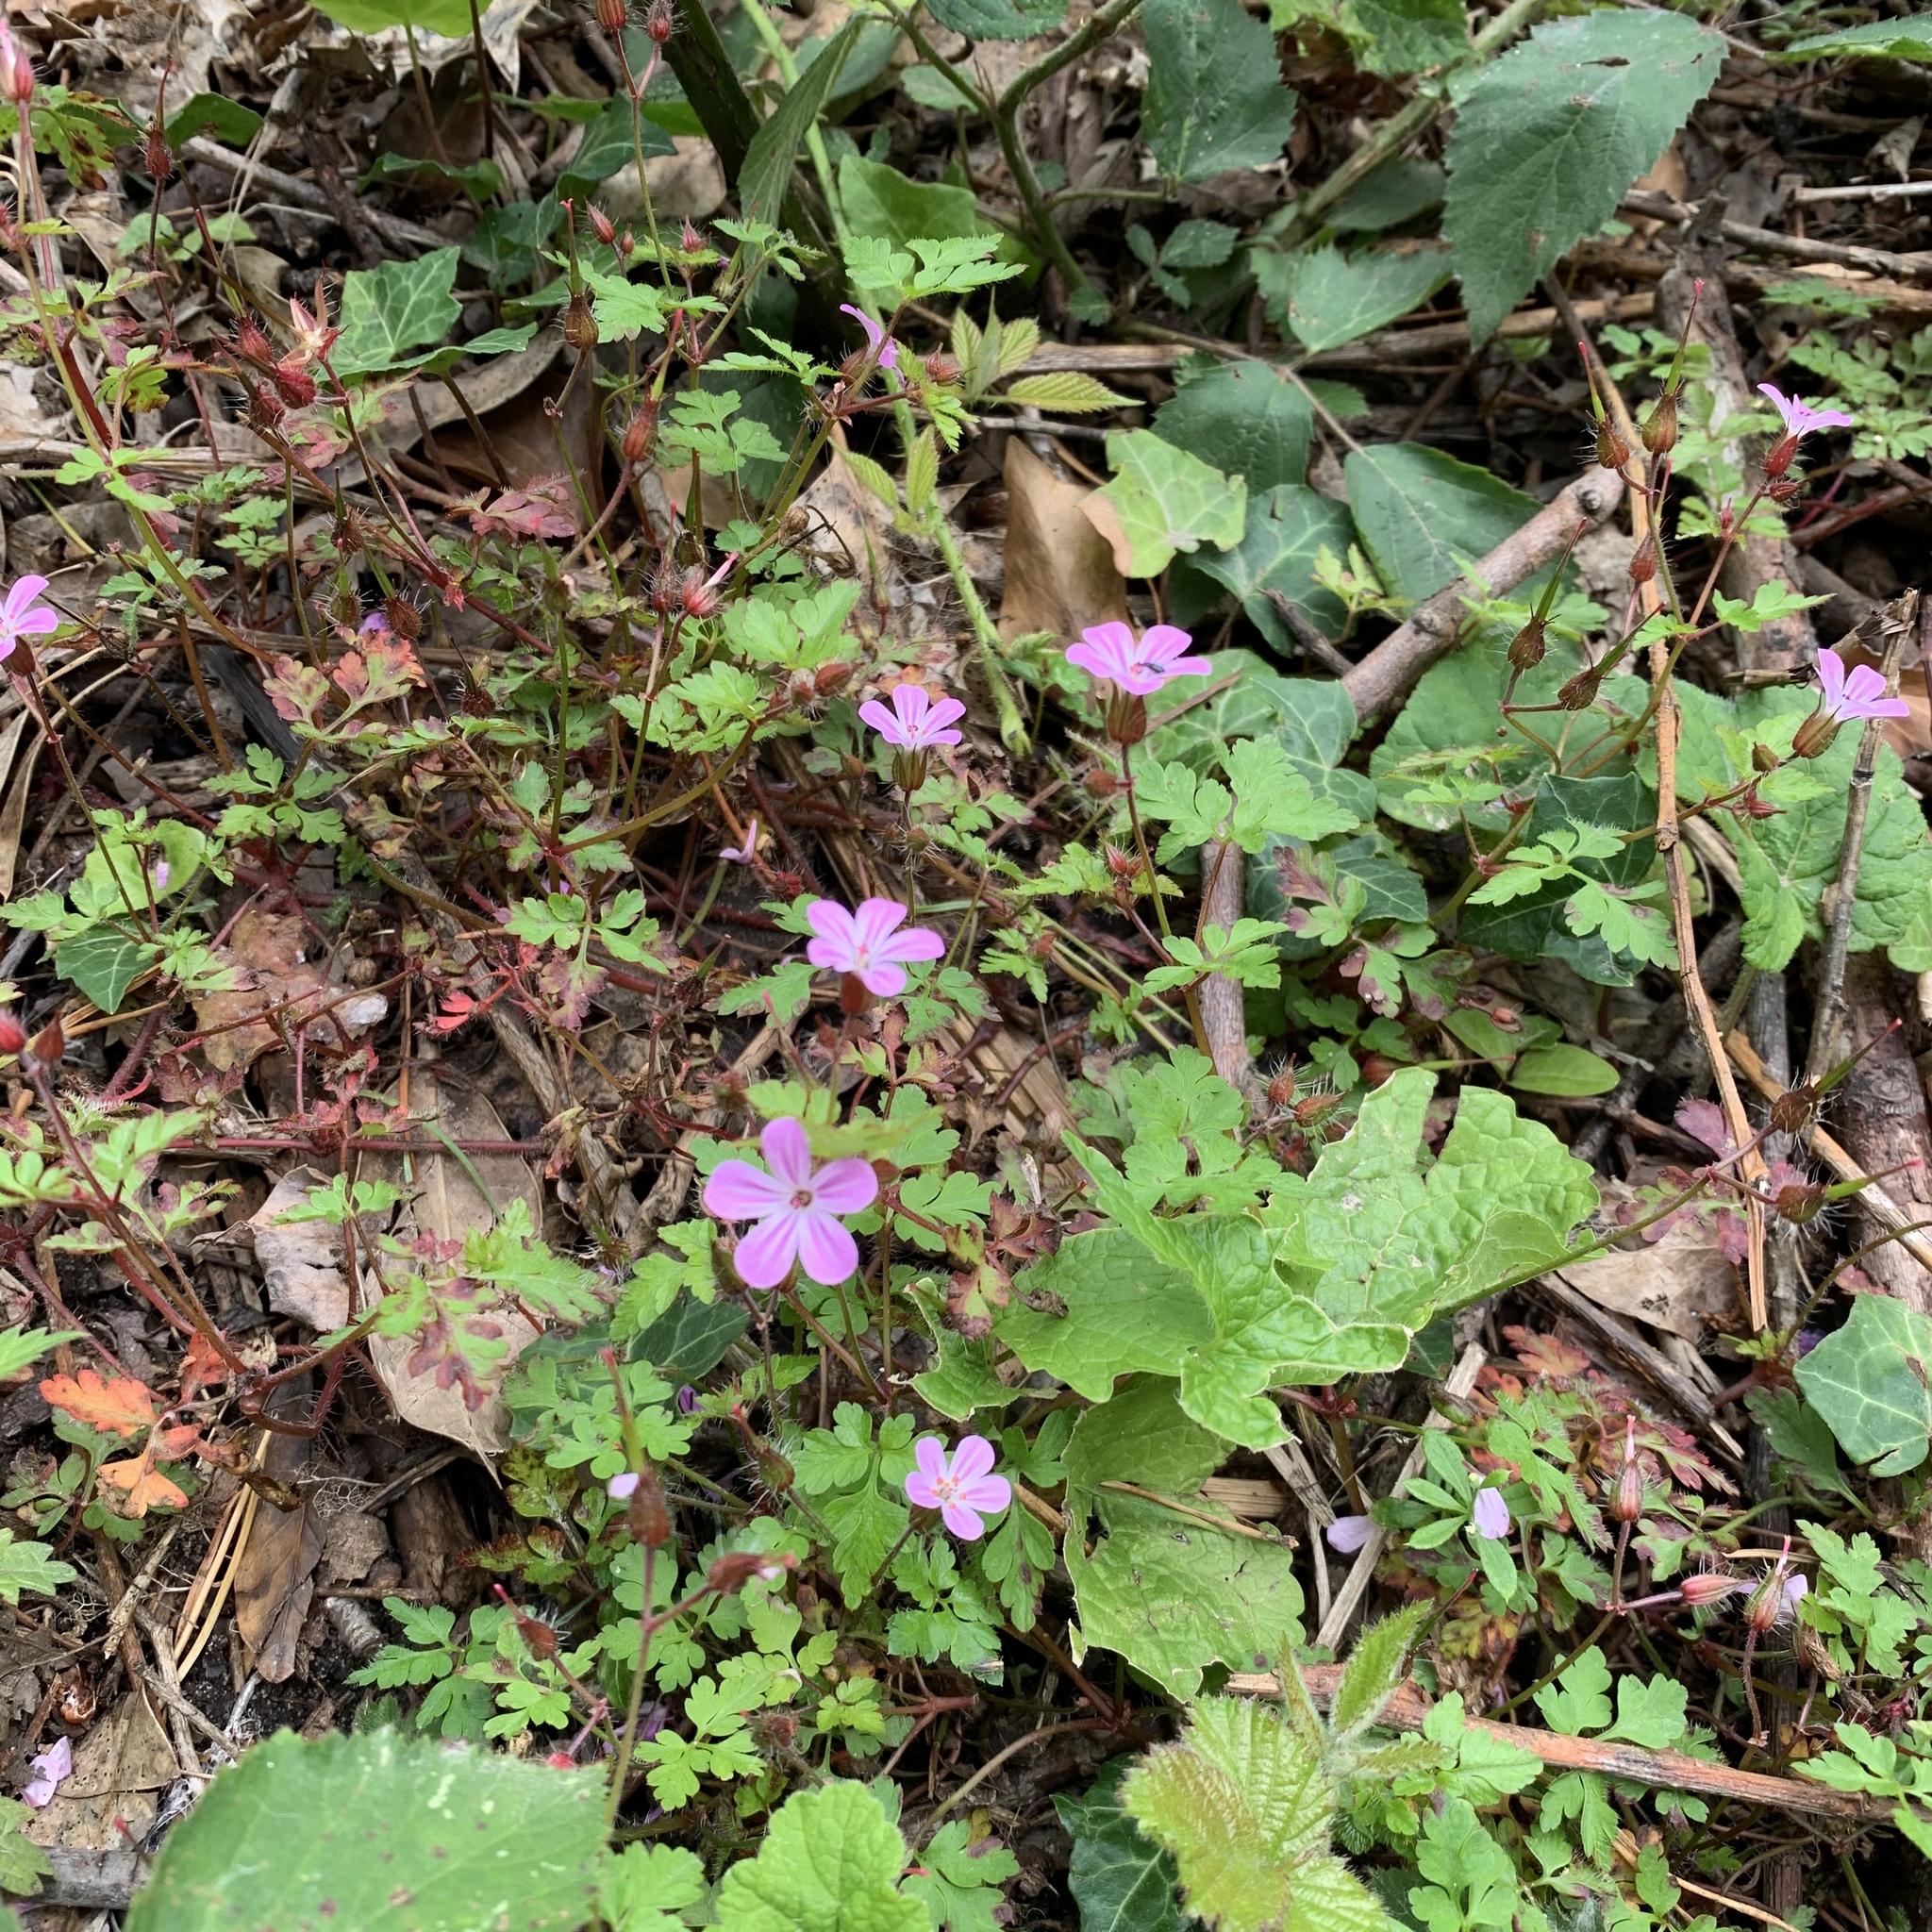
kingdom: Plantae
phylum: Tracheophyta
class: Magnoliopsida
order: Geraniales
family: Geraniaceae
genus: Geranium
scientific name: Geranium robertianum
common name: Herb-robert
